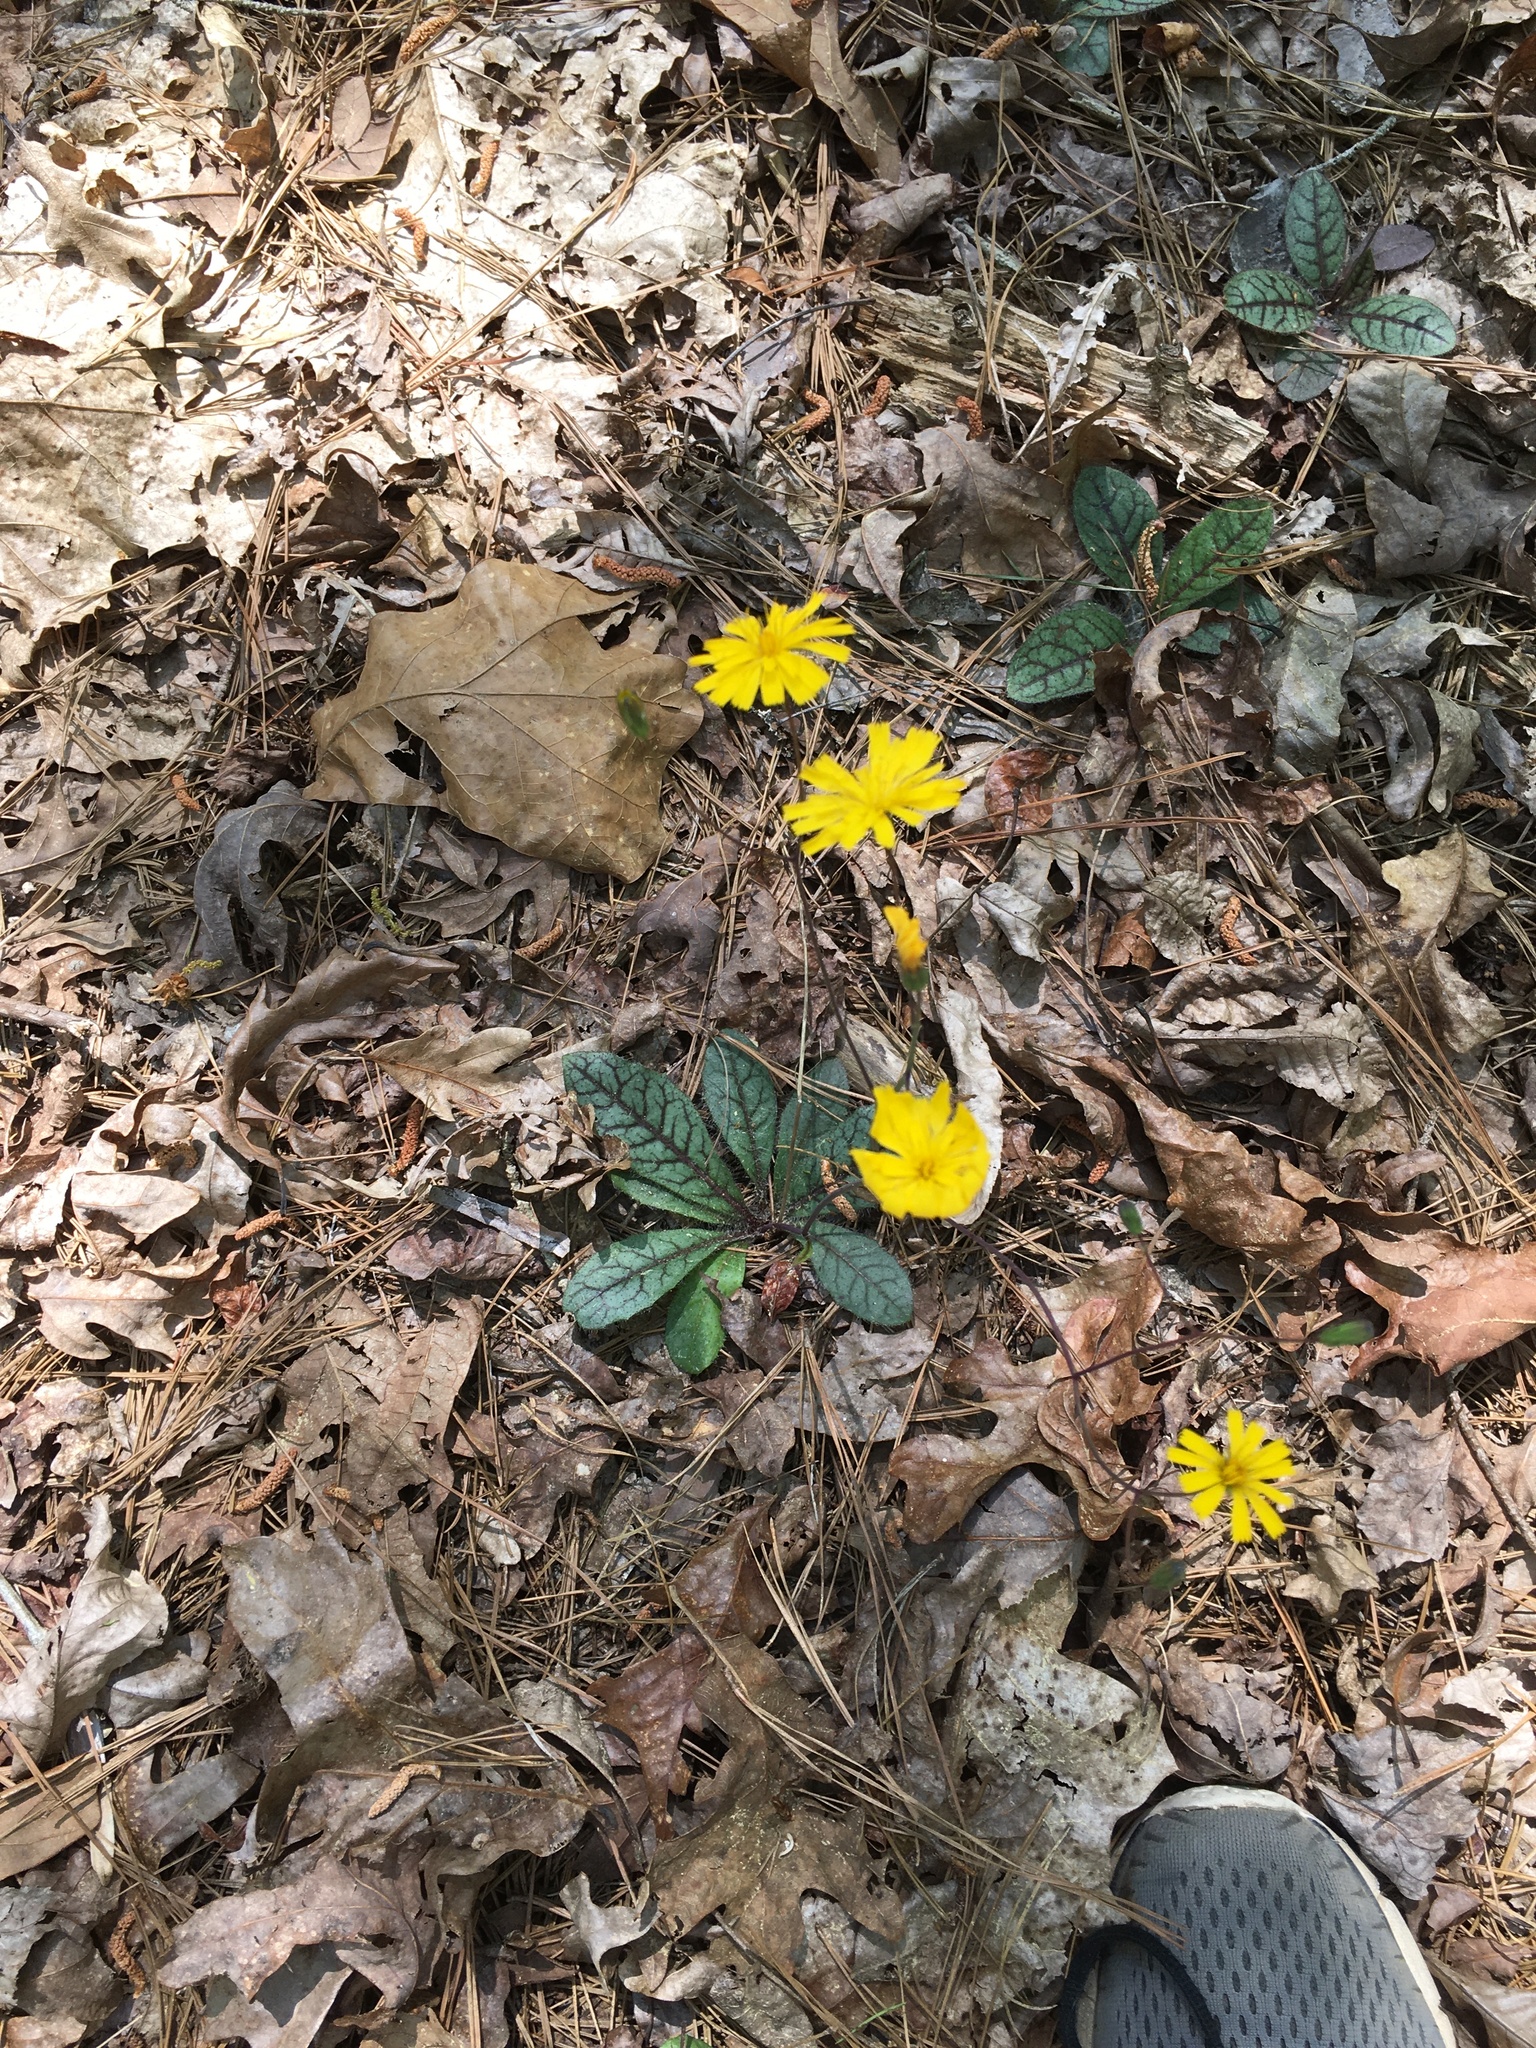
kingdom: Plantae
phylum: Tracheophyta
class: Magnoliopsida
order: Asterales
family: Asteraceae
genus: Hieracium
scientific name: Hieracium venosum
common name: Rattlesnake hawkweed
